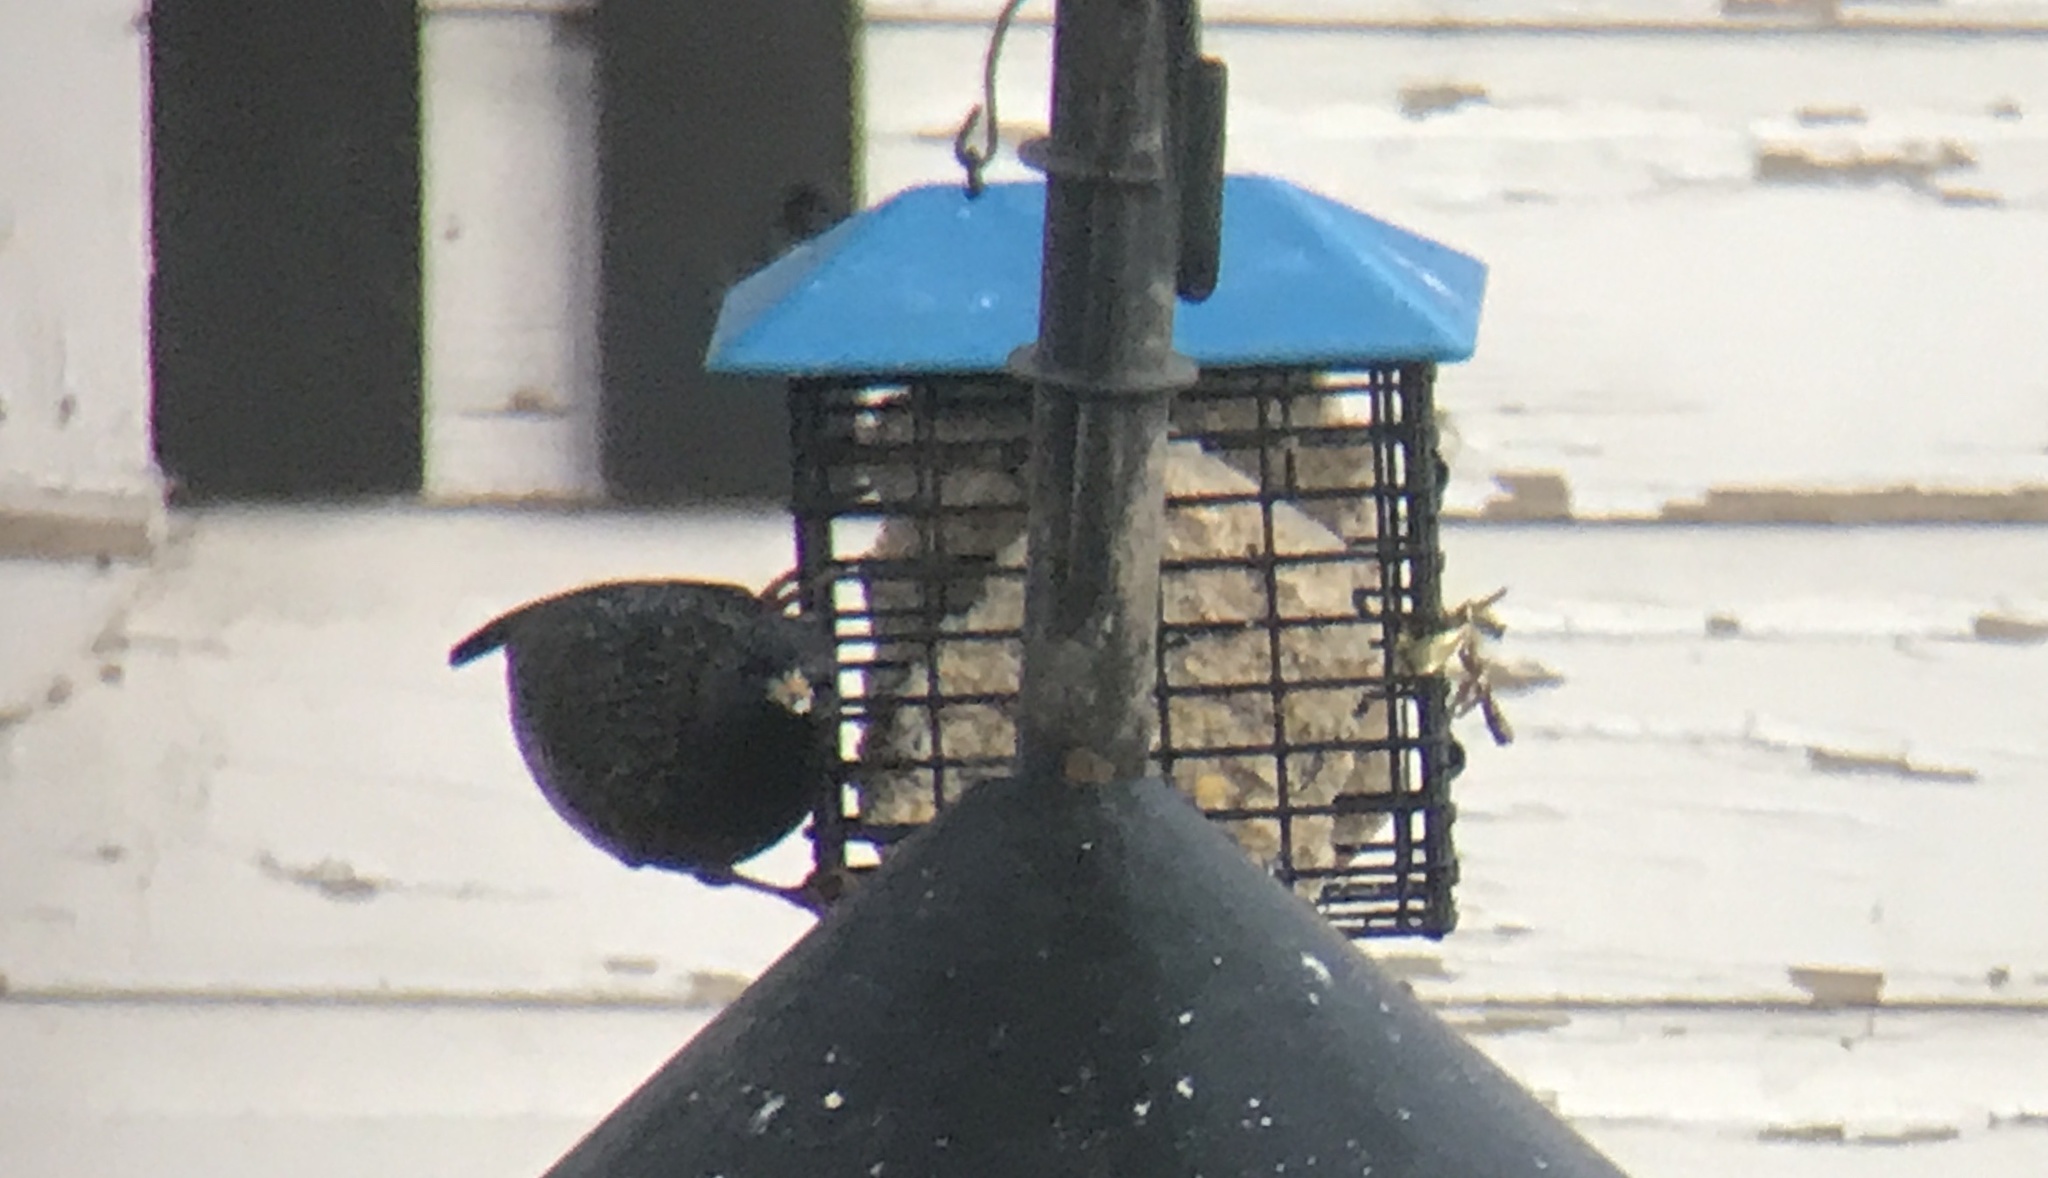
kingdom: Animalia
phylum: Chordata
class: Aves
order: Passeriformes
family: Sturnidae
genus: Sturnus
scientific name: Sturnus vulgaris
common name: Common starling
